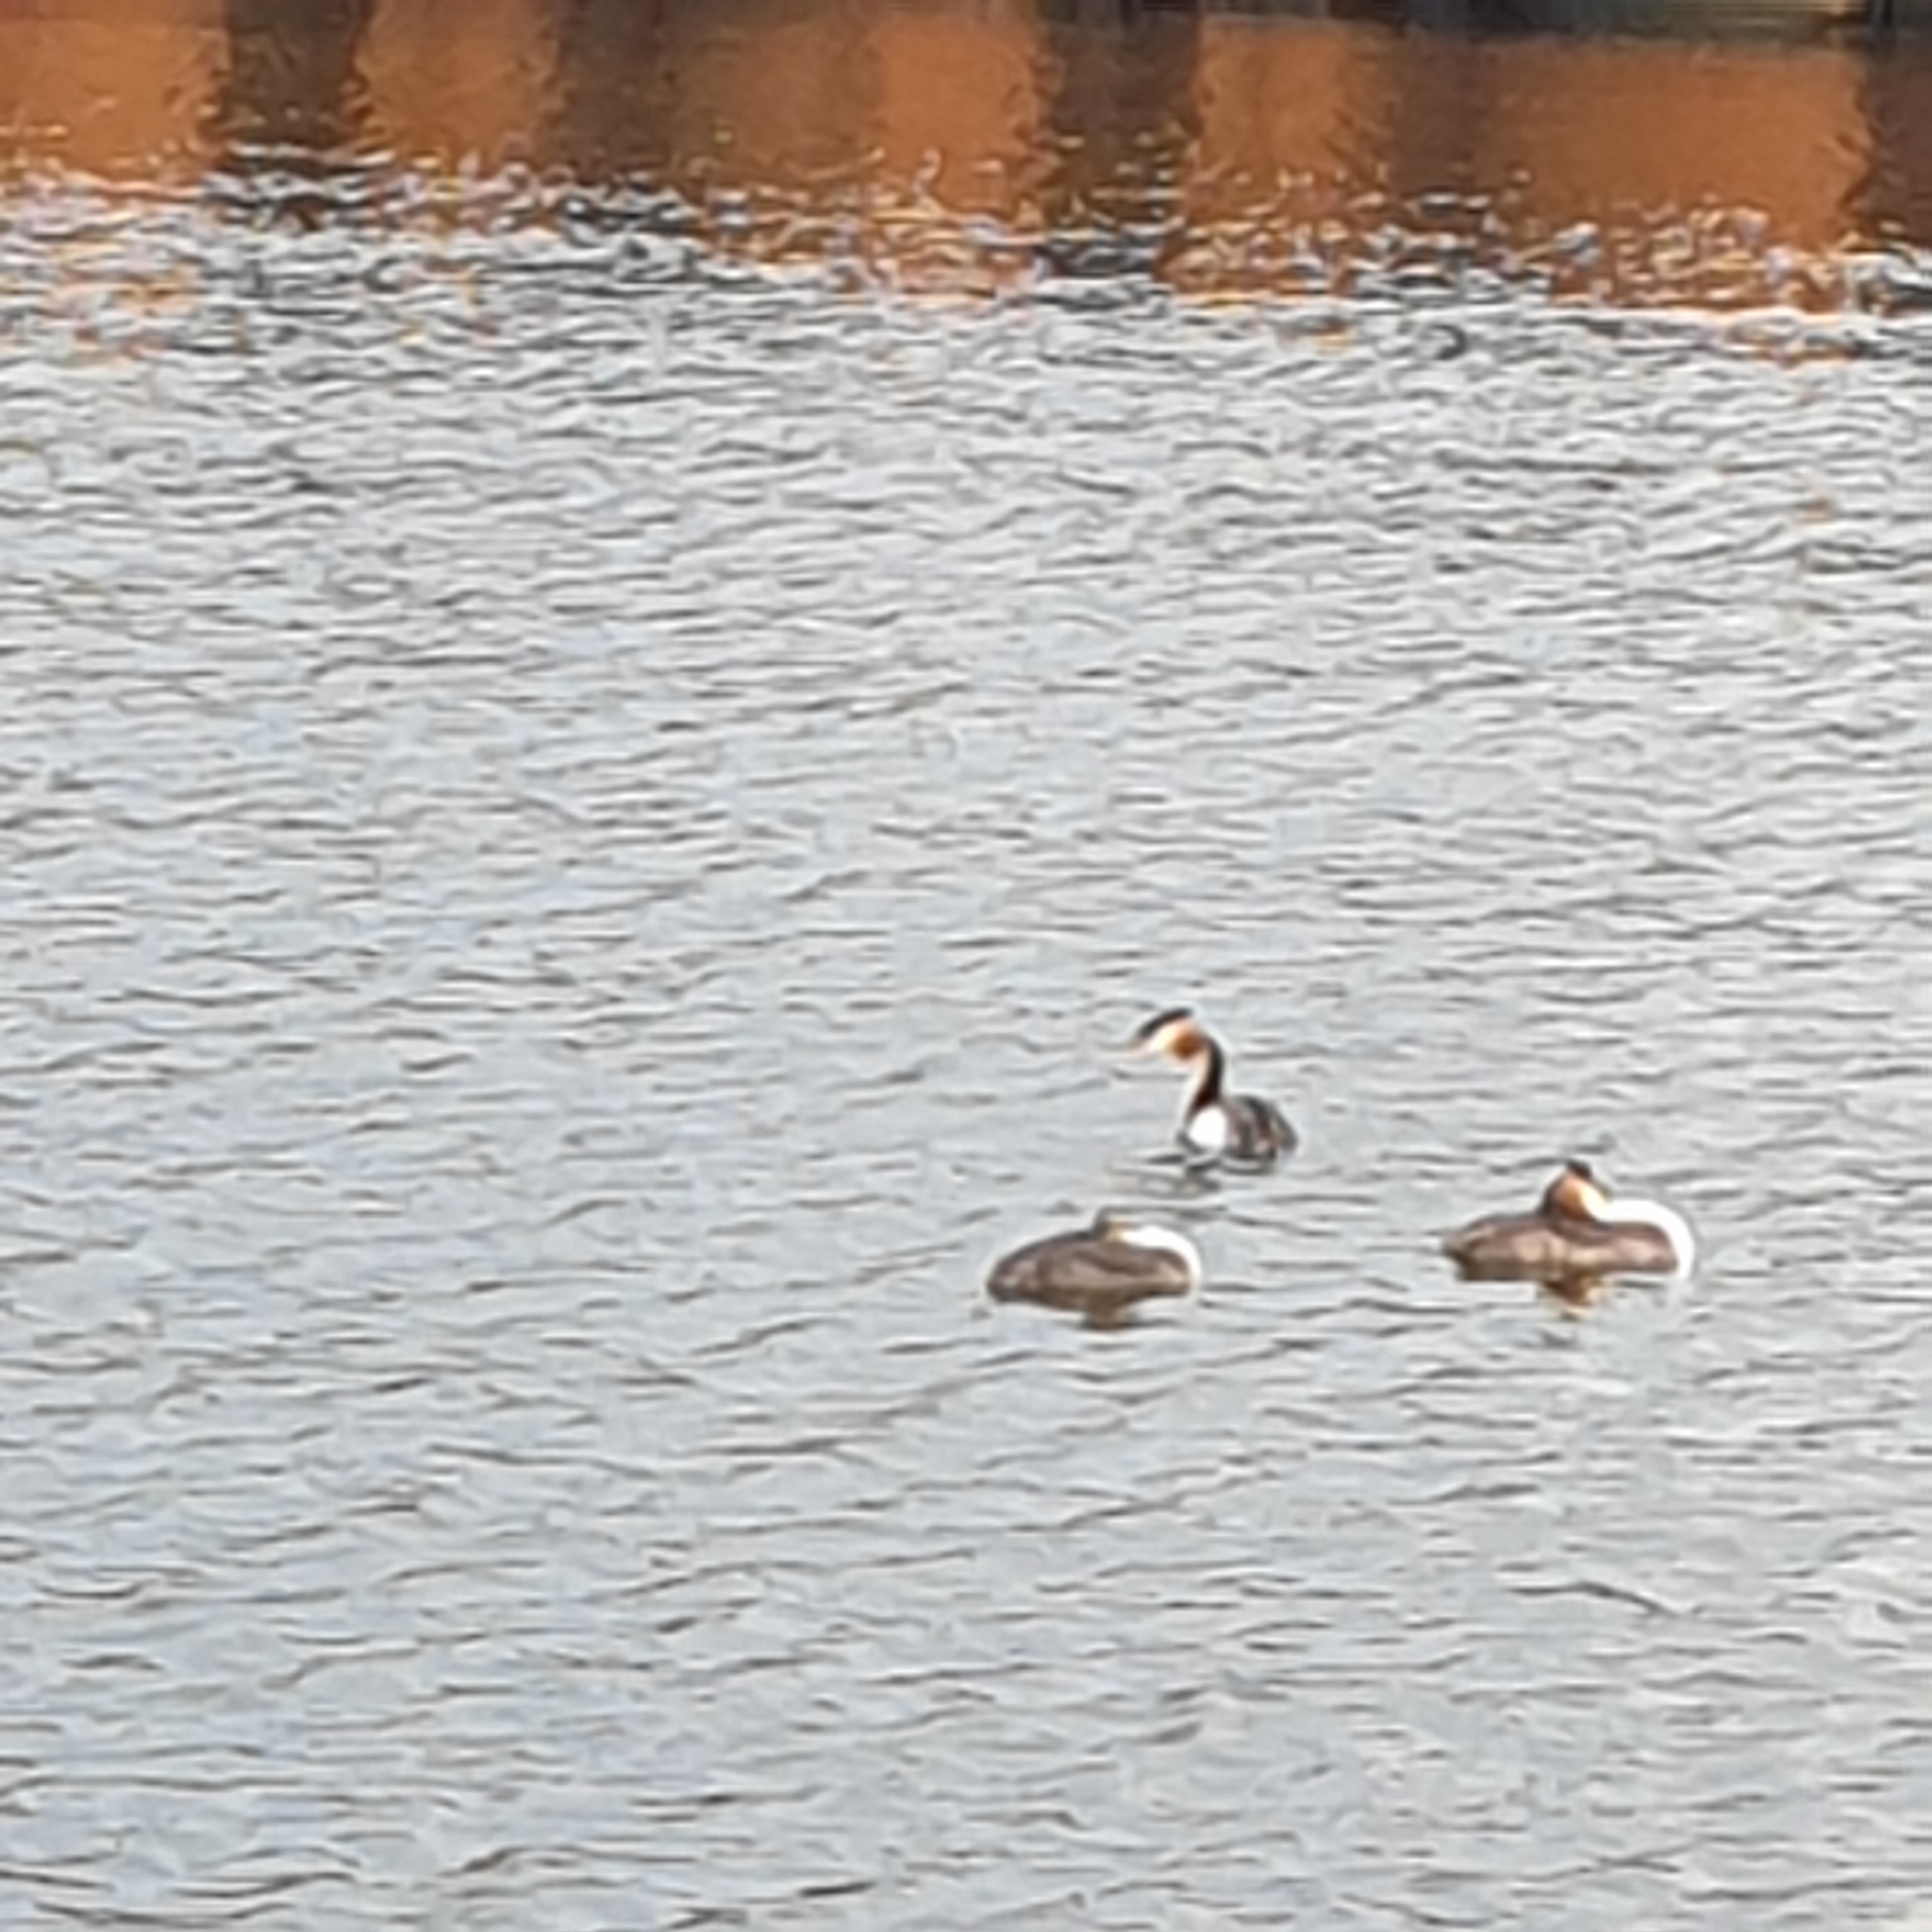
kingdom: Animalia
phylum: Chordata
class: Aves
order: Podicipediformes
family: Podicipedidae
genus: Podiceps
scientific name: Podiceps cristatus
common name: Great crested grebe
